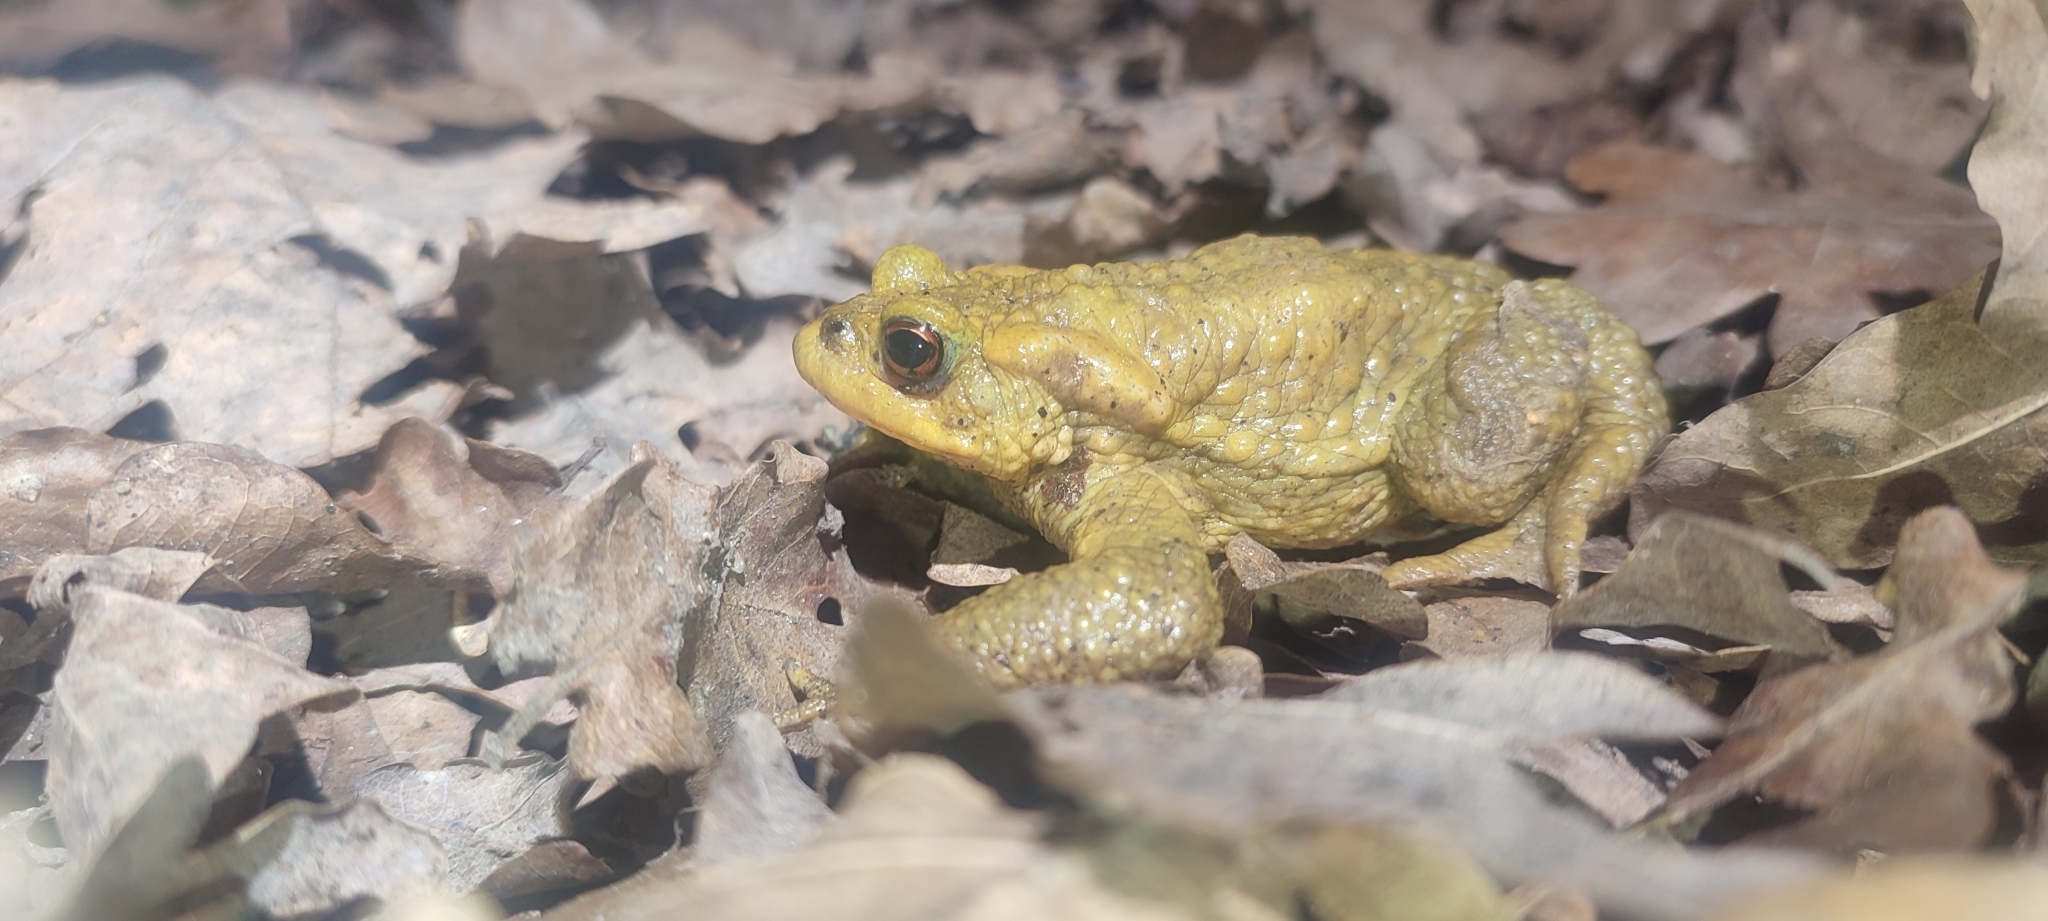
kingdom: Animalia
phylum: Chordata
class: Amphibia
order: Anura
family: Bufonidae
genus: Bufo
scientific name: Bufo spinosus
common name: Western common toad
